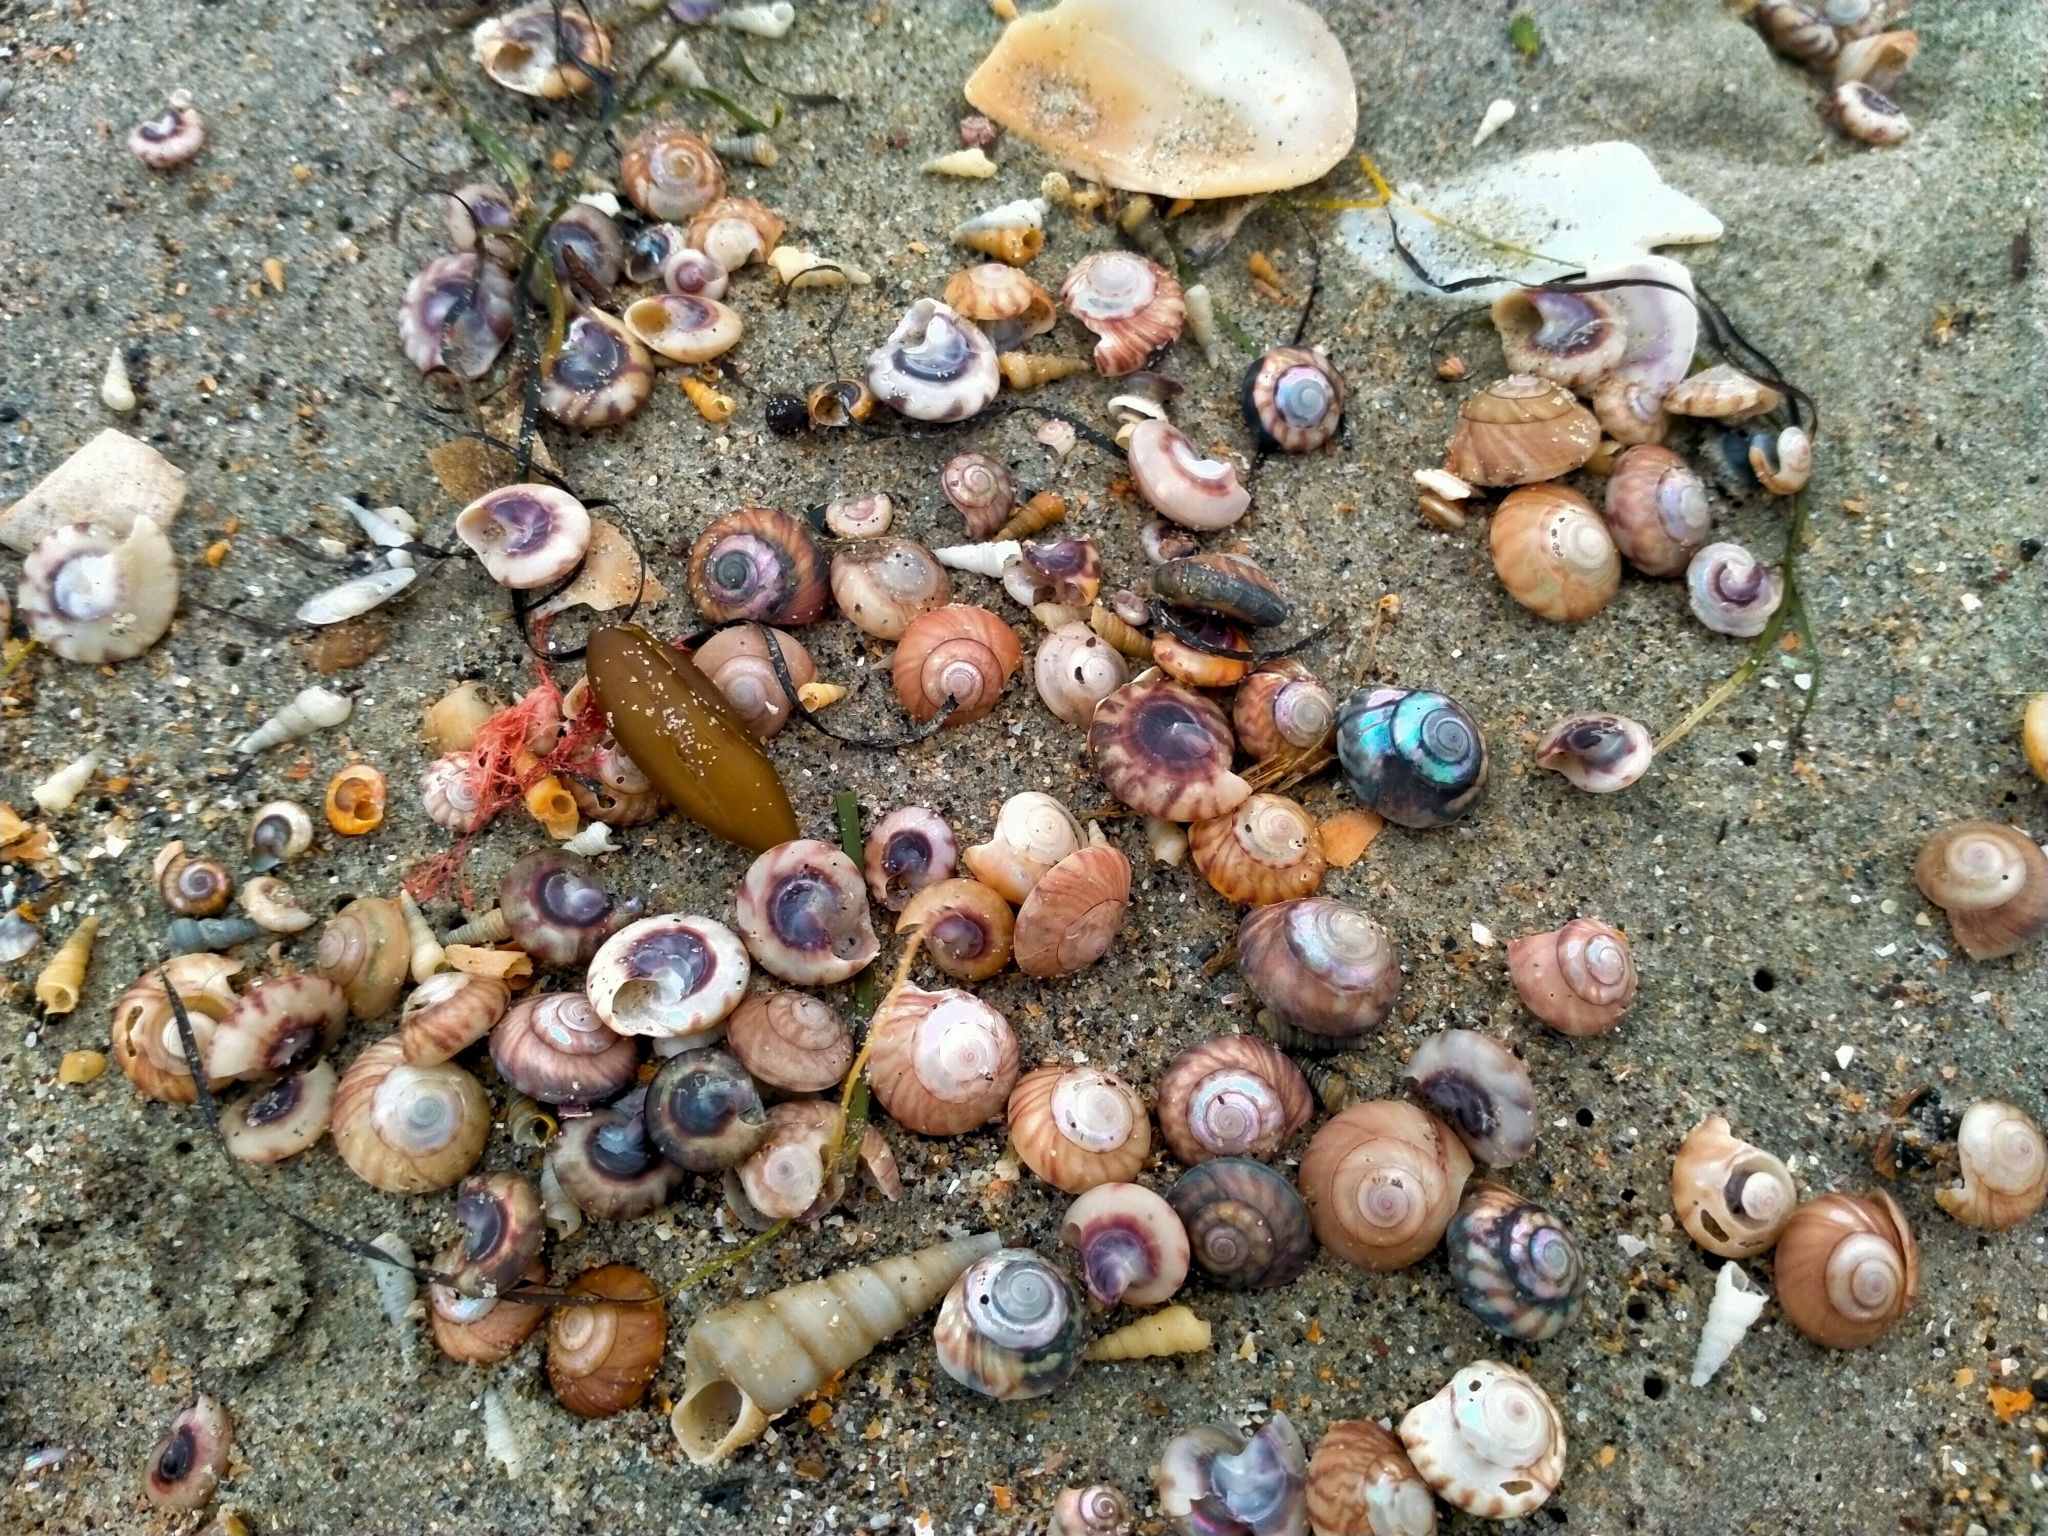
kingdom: Animalia
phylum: Mollusca
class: Gastropoda
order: Trochida
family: Trochidae
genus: Zethalia
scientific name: Zethalia zelandica
